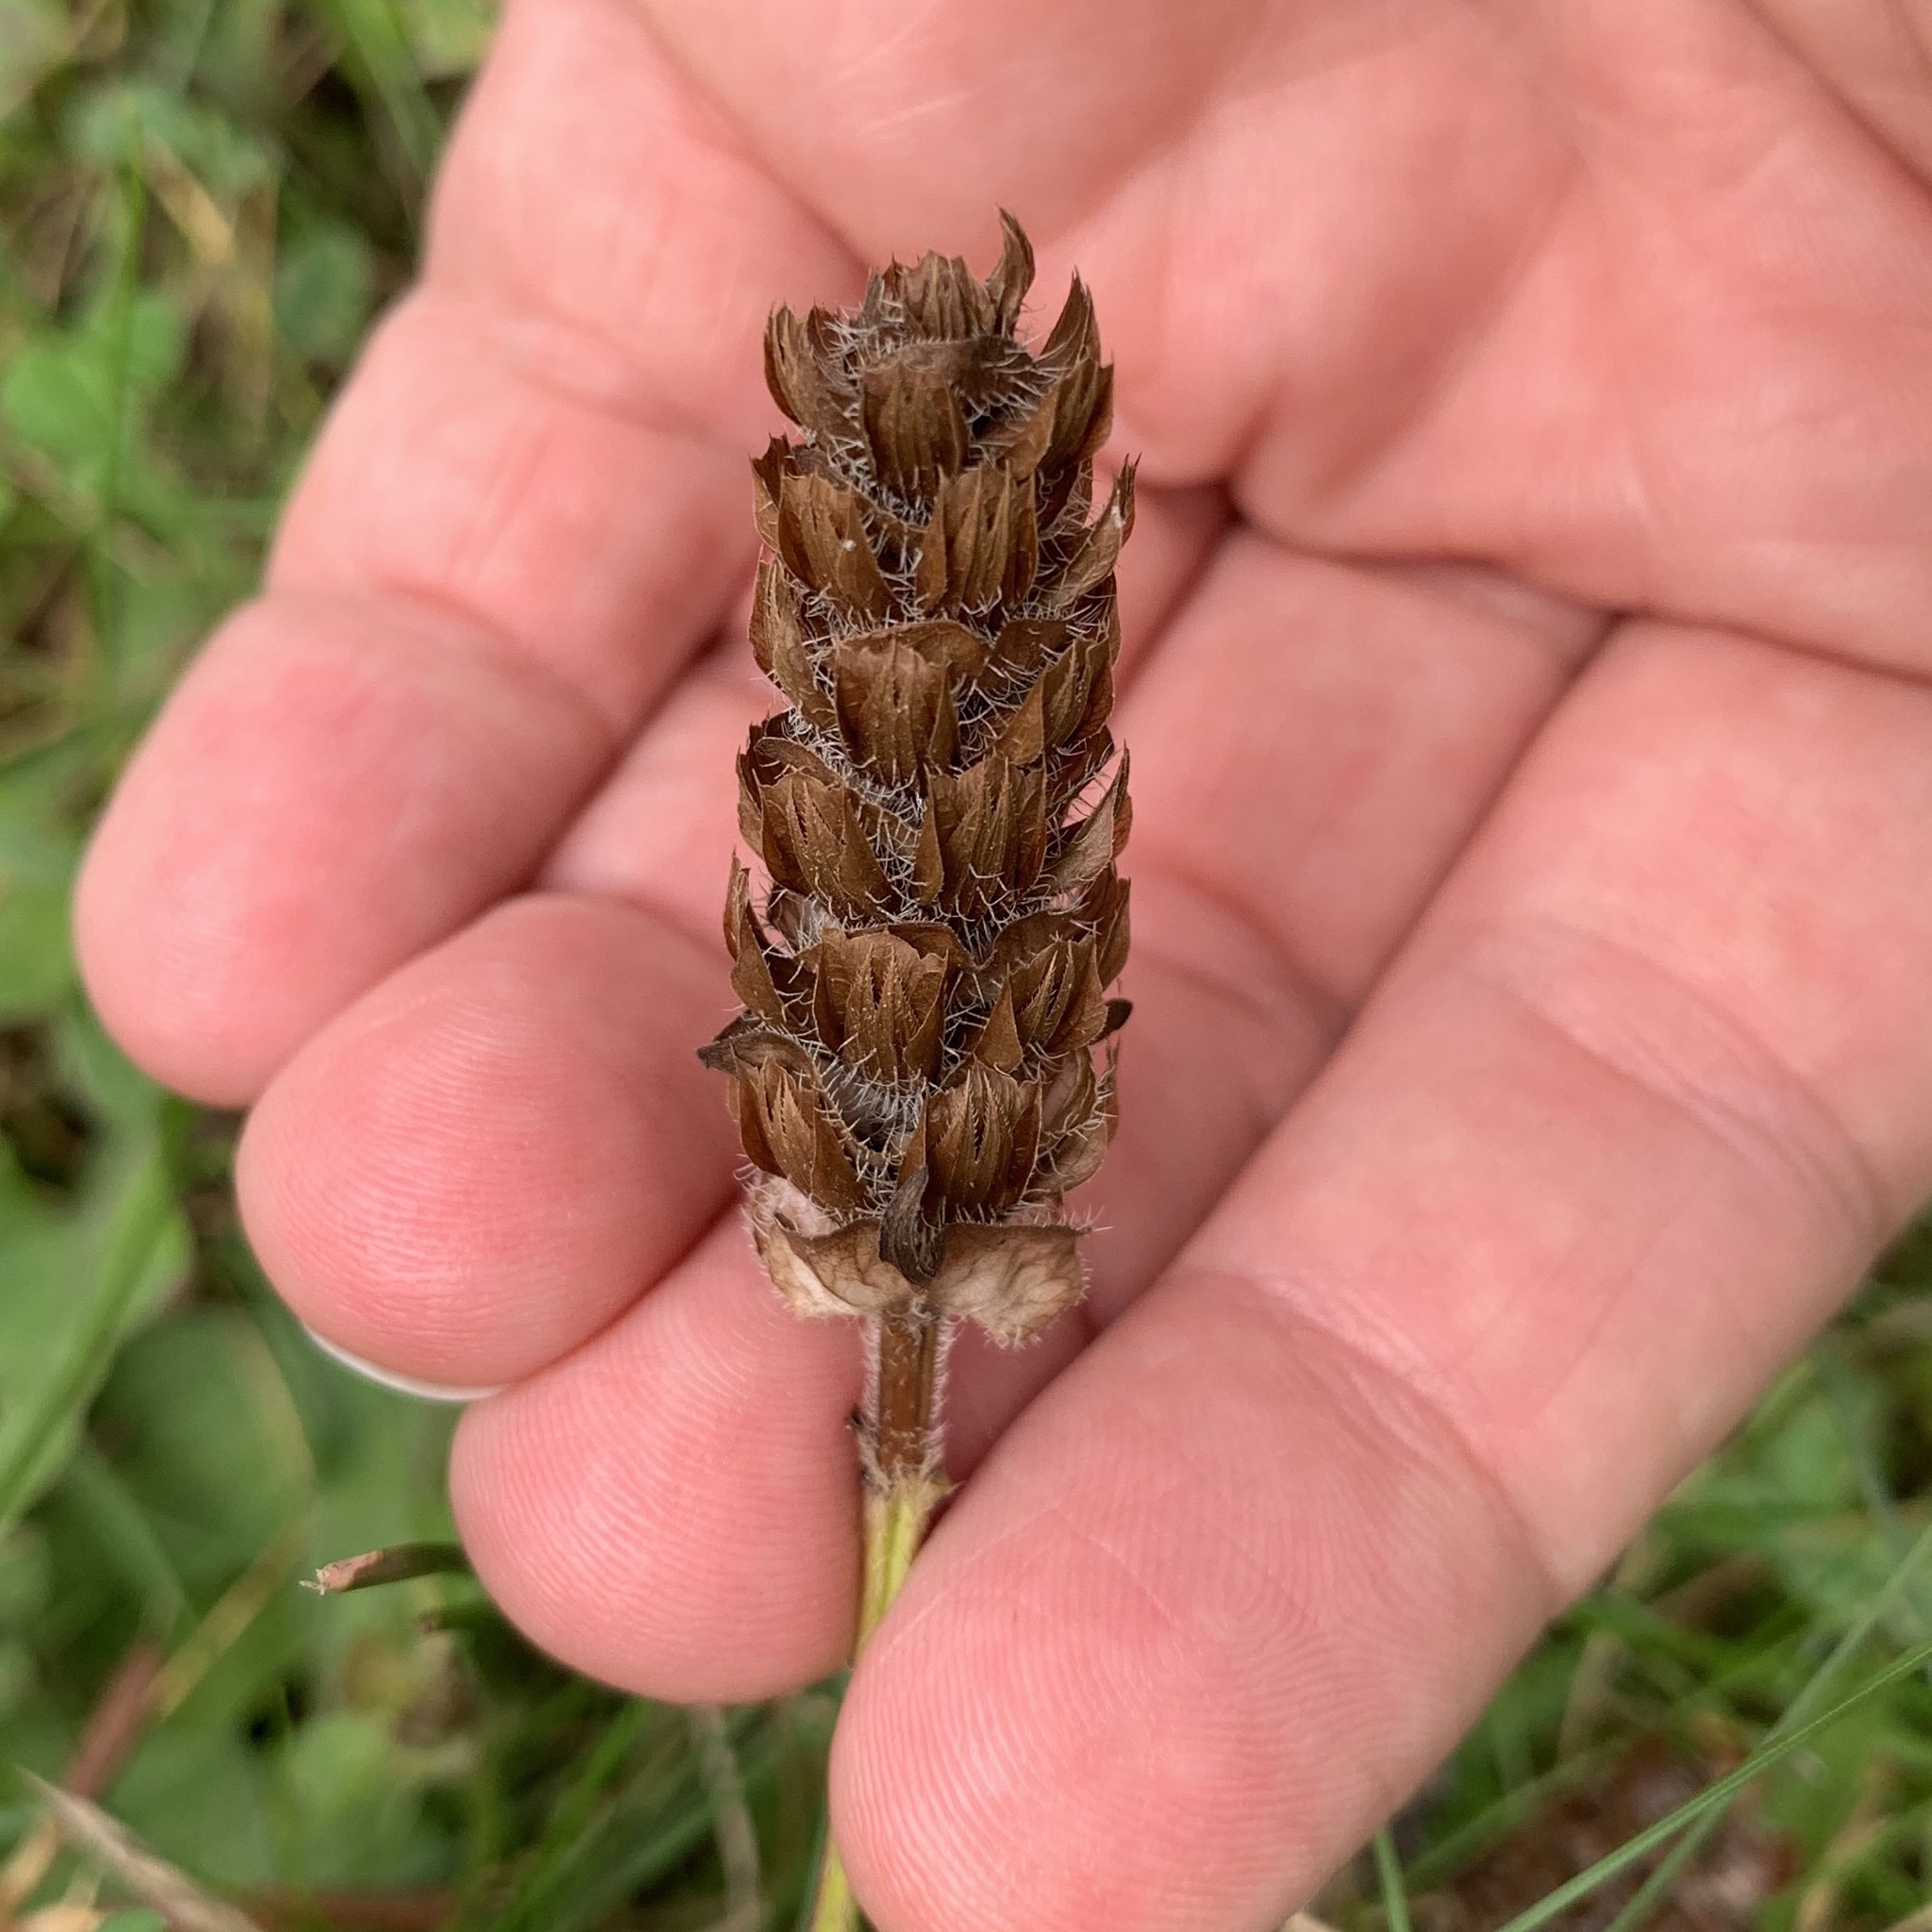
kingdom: Plantae
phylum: Tracheophyta
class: Magnoliopsida
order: Lamiales
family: Lamiaceae
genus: Prunella
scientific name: Prunella vulgaris
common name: Heal-all
